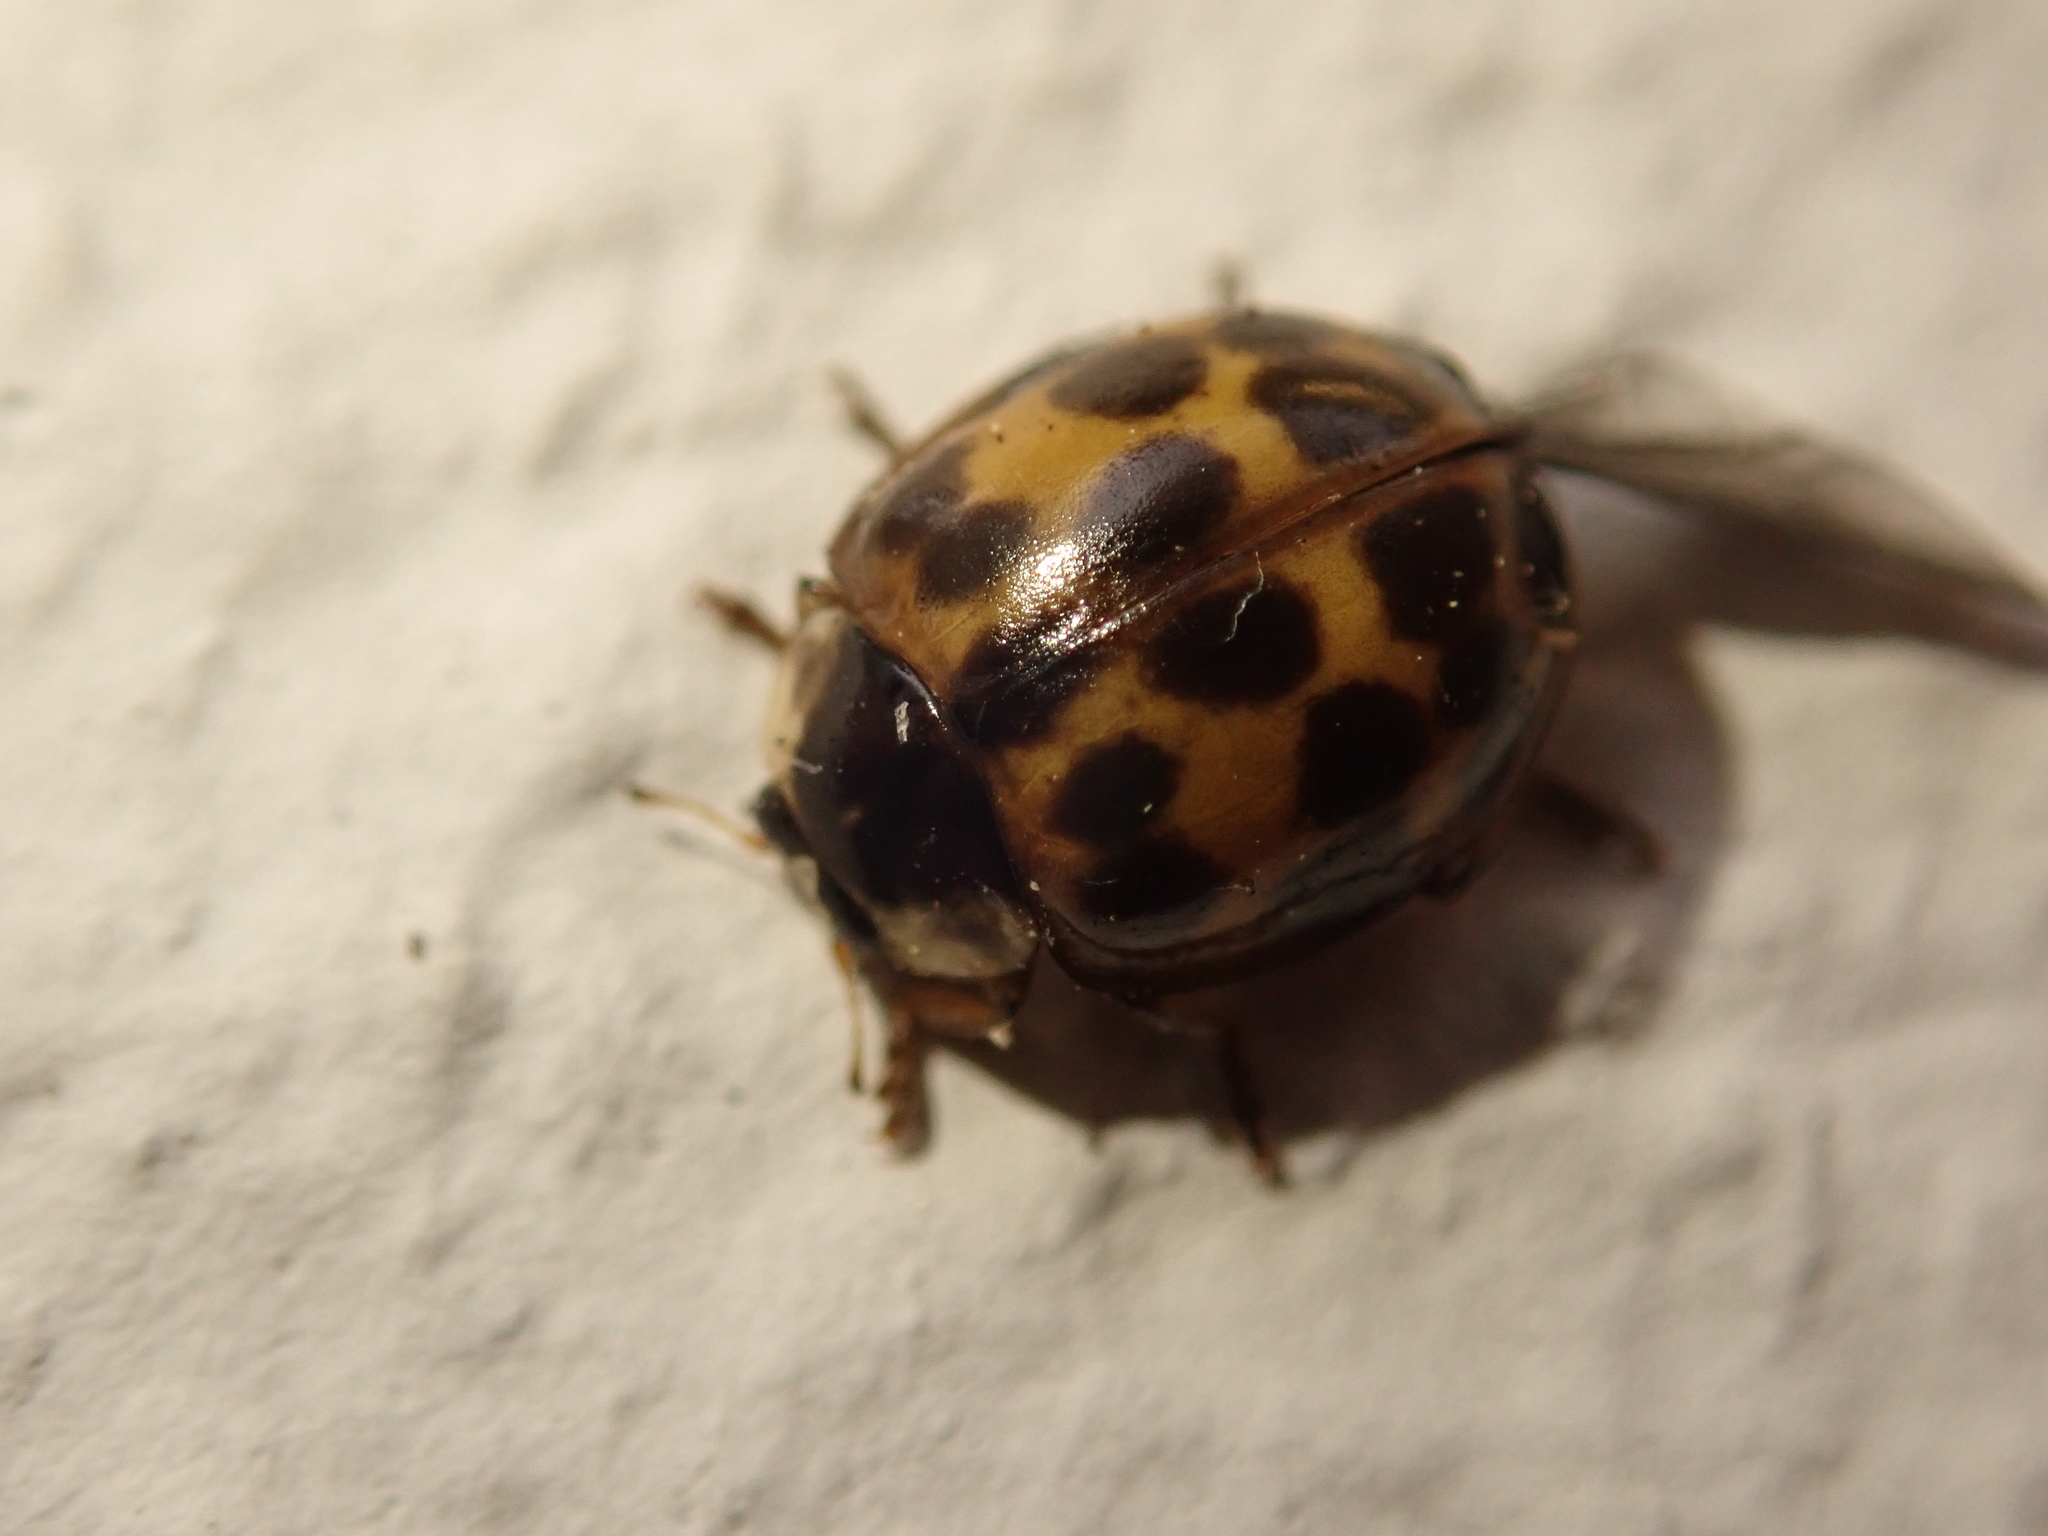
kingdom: Animalia
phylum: Arthropoda
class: Insecta
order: Coleoptera
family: Coccinellidae
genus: Harmonia
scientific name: Harmonia axyridis
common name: Harlequin ladybird
